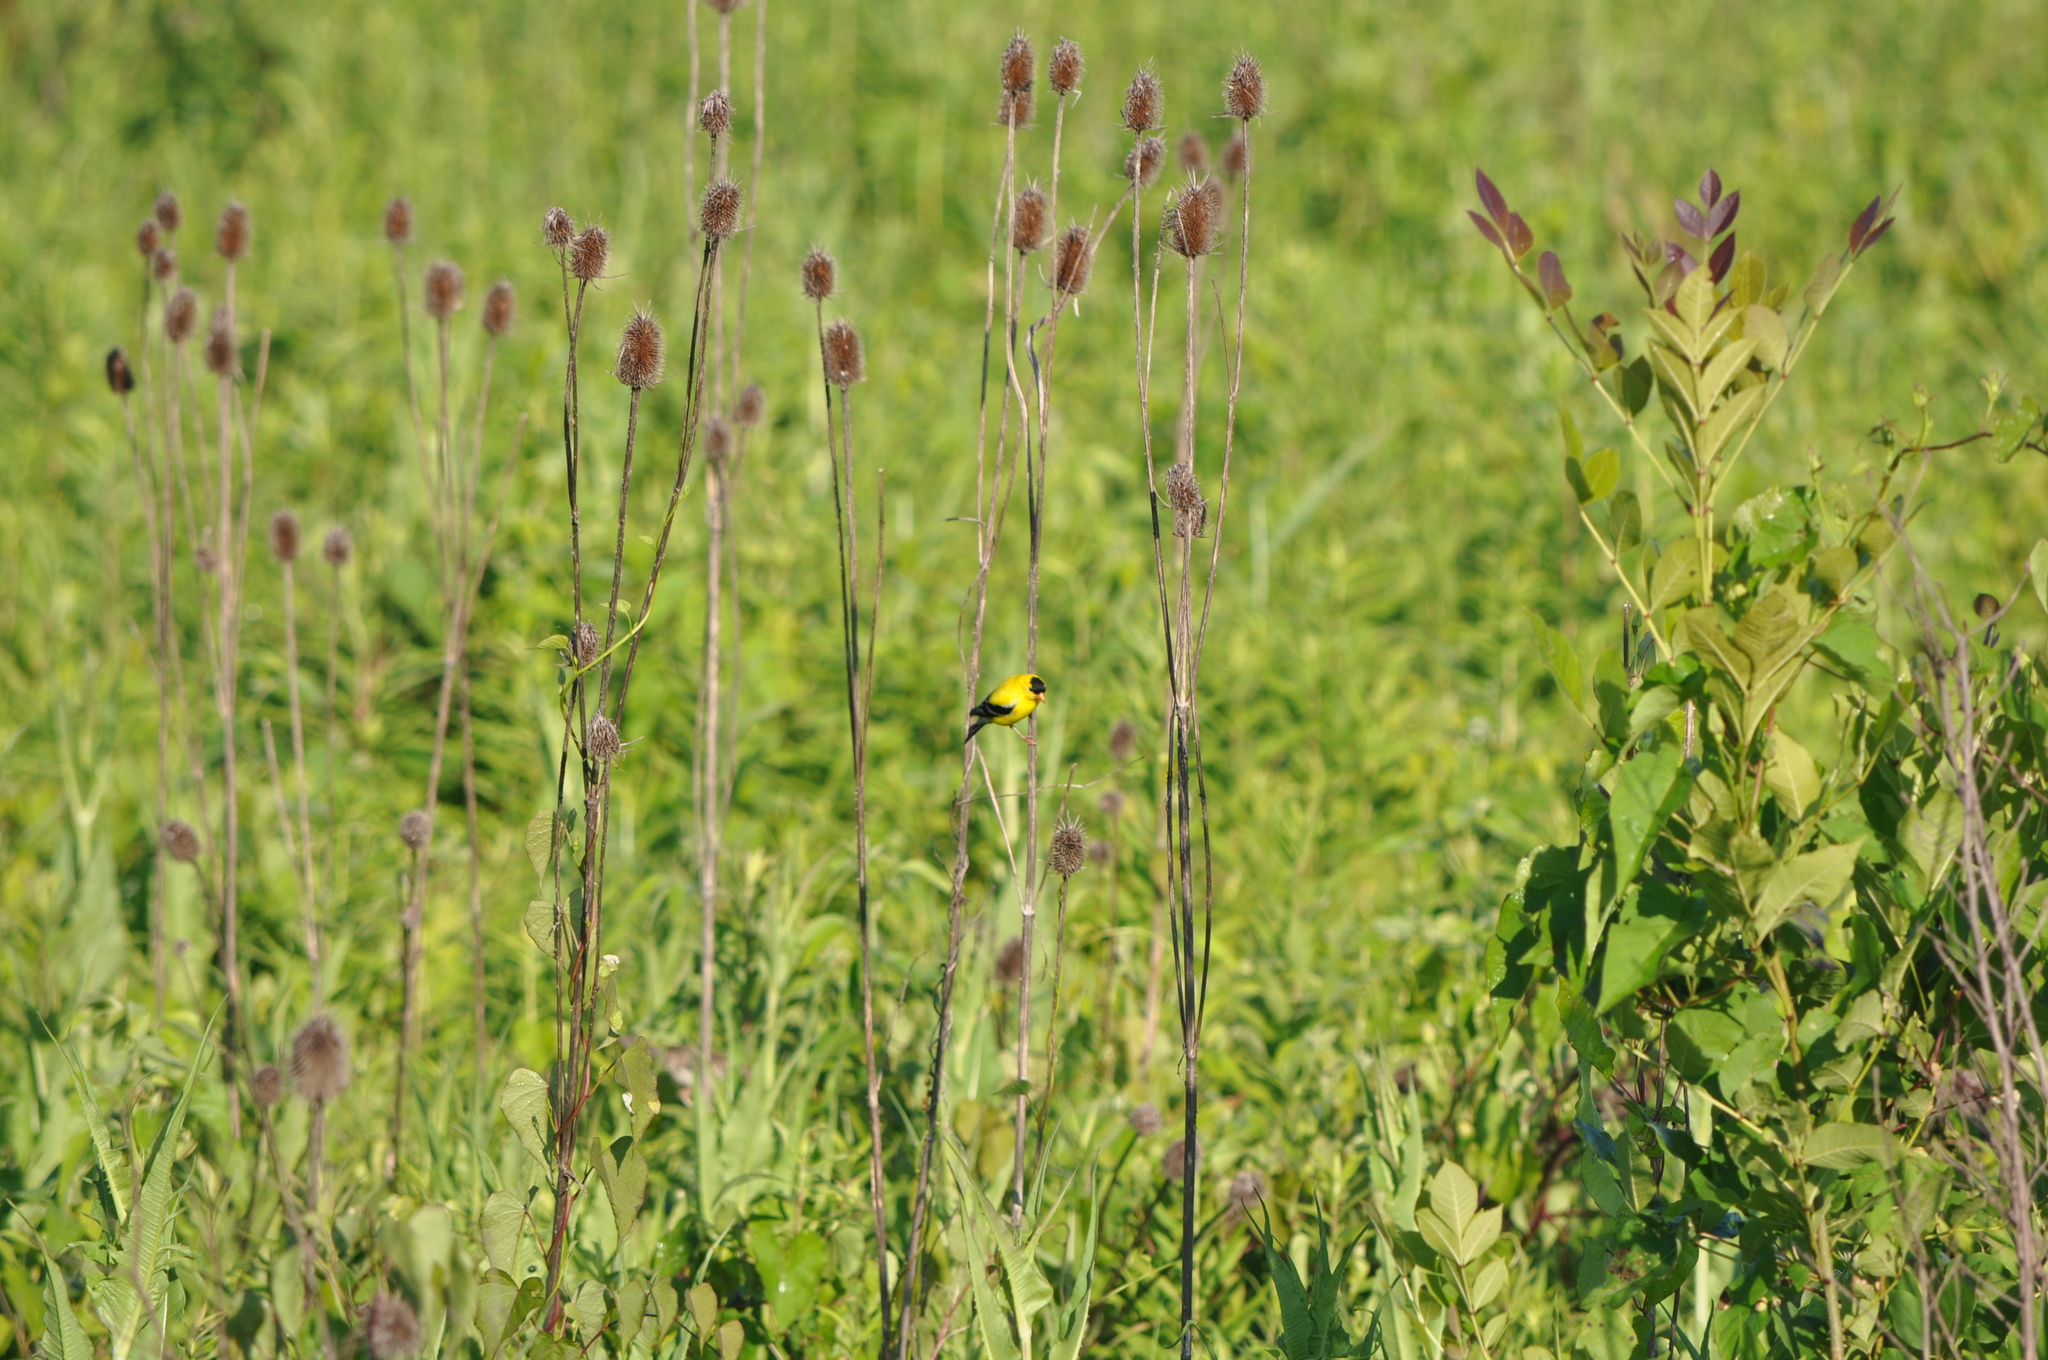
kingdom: Animalia
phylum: Chordata
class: Aves
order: Passeriformes
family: Fringillidae
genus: Spinus
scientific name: Spinus tristis
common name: American goldfinch
